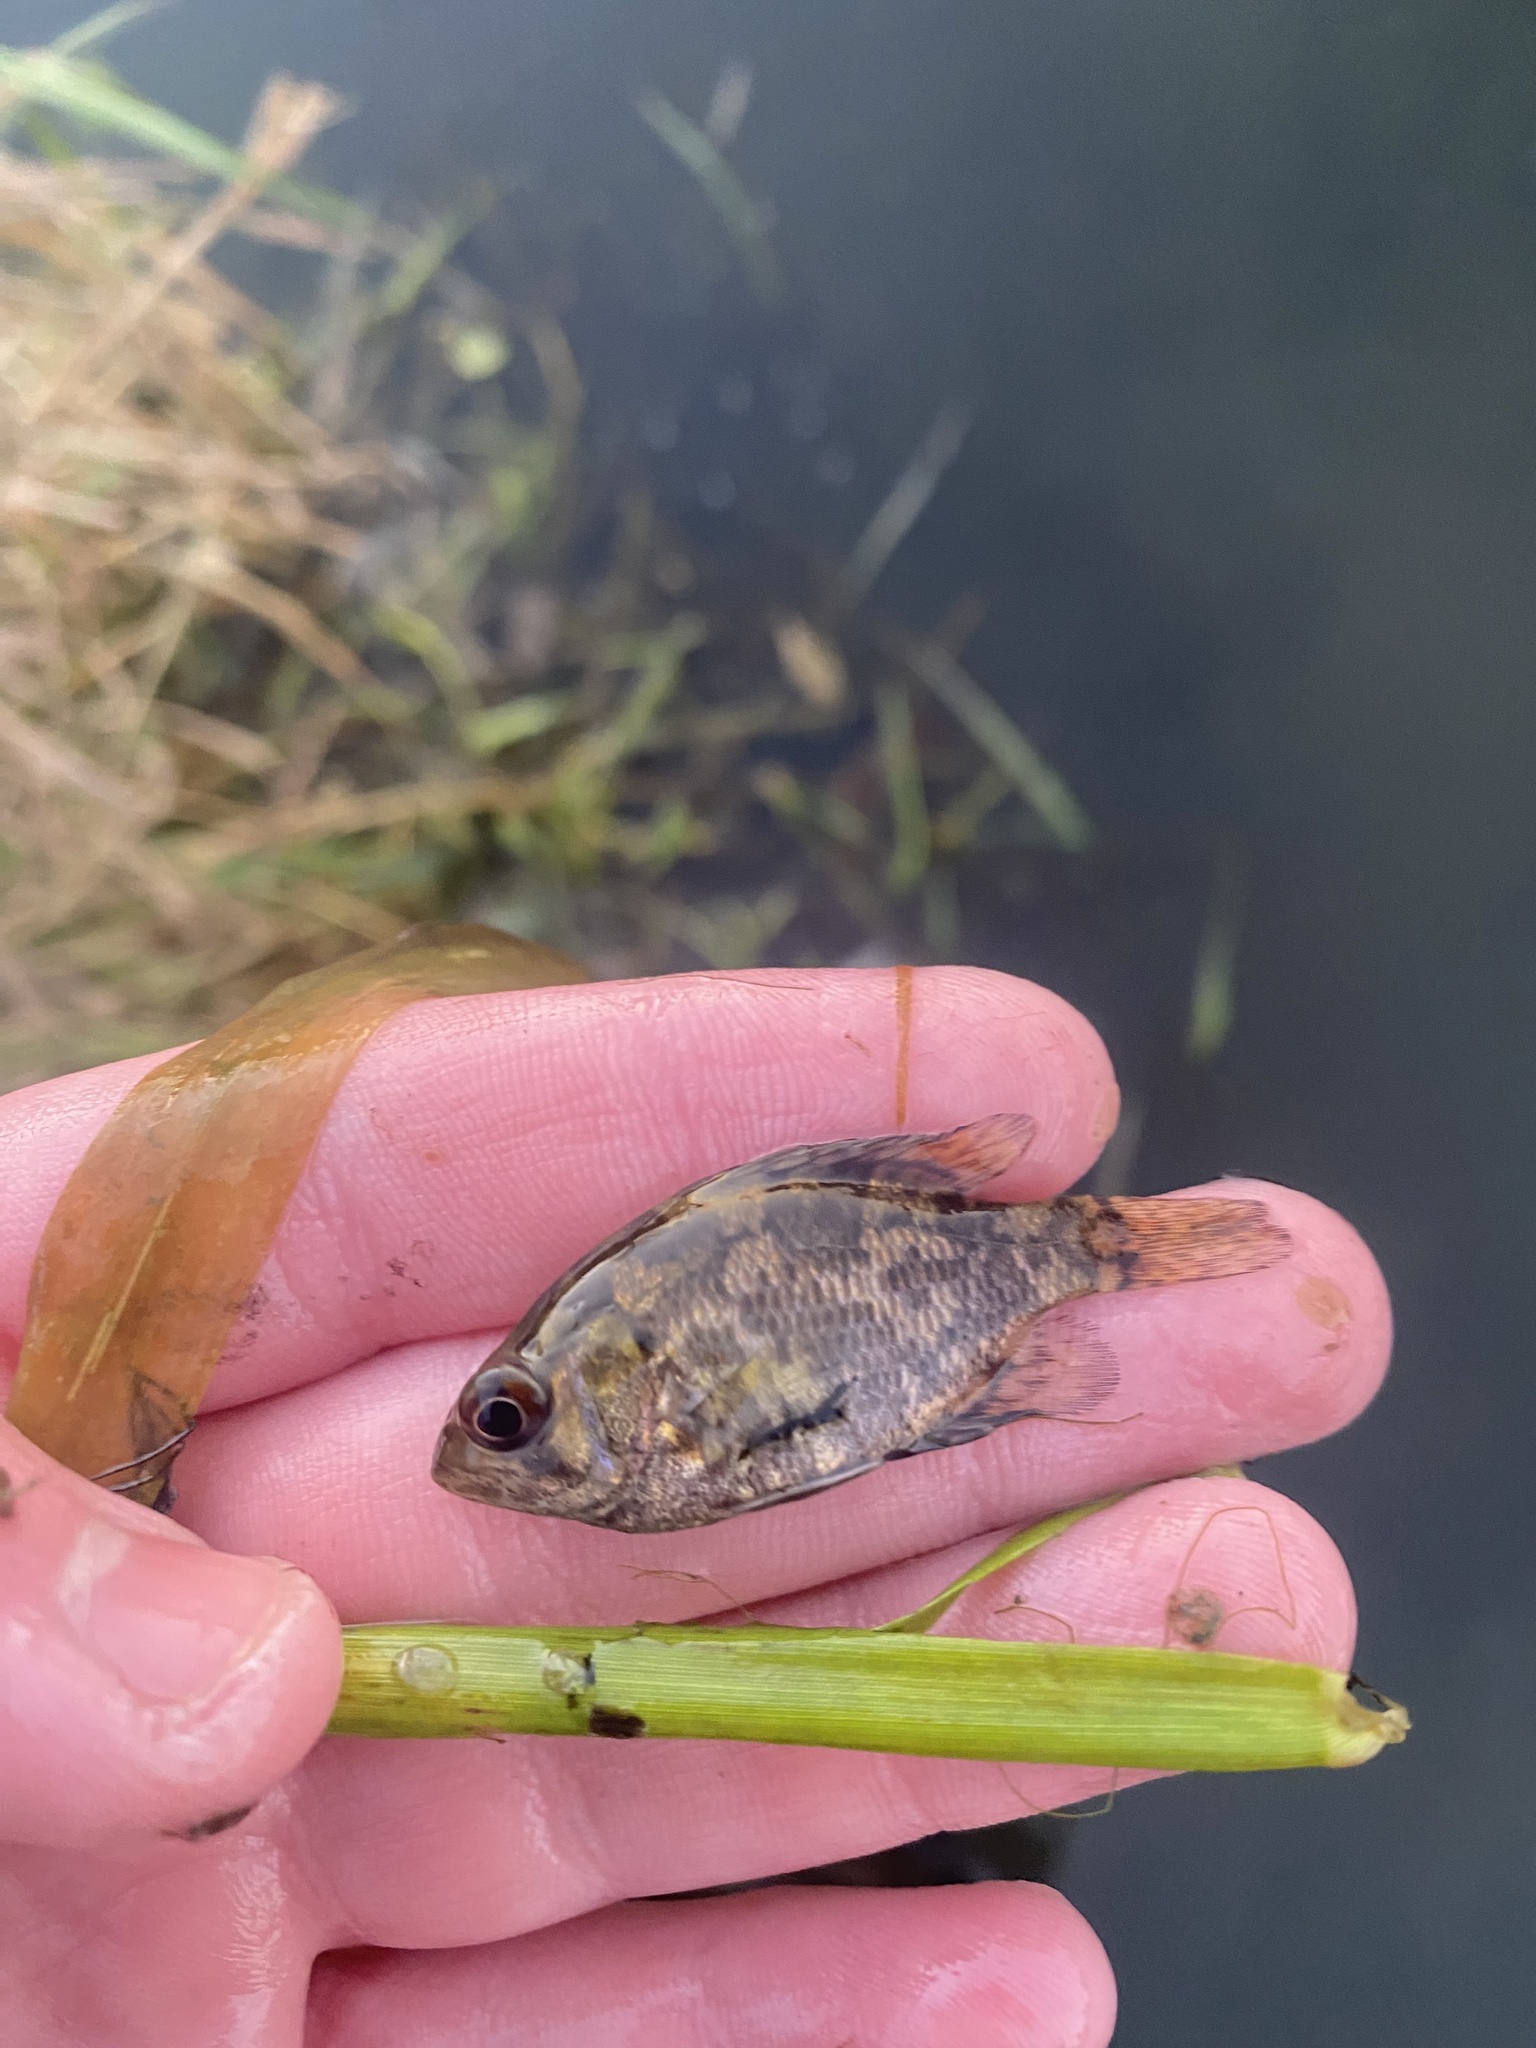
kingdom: Animalia
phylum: Chordata
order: Perciformes
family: Centrarchidae
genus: Ambloplites
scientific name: Ambloplites rupestris
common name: Rock bass
